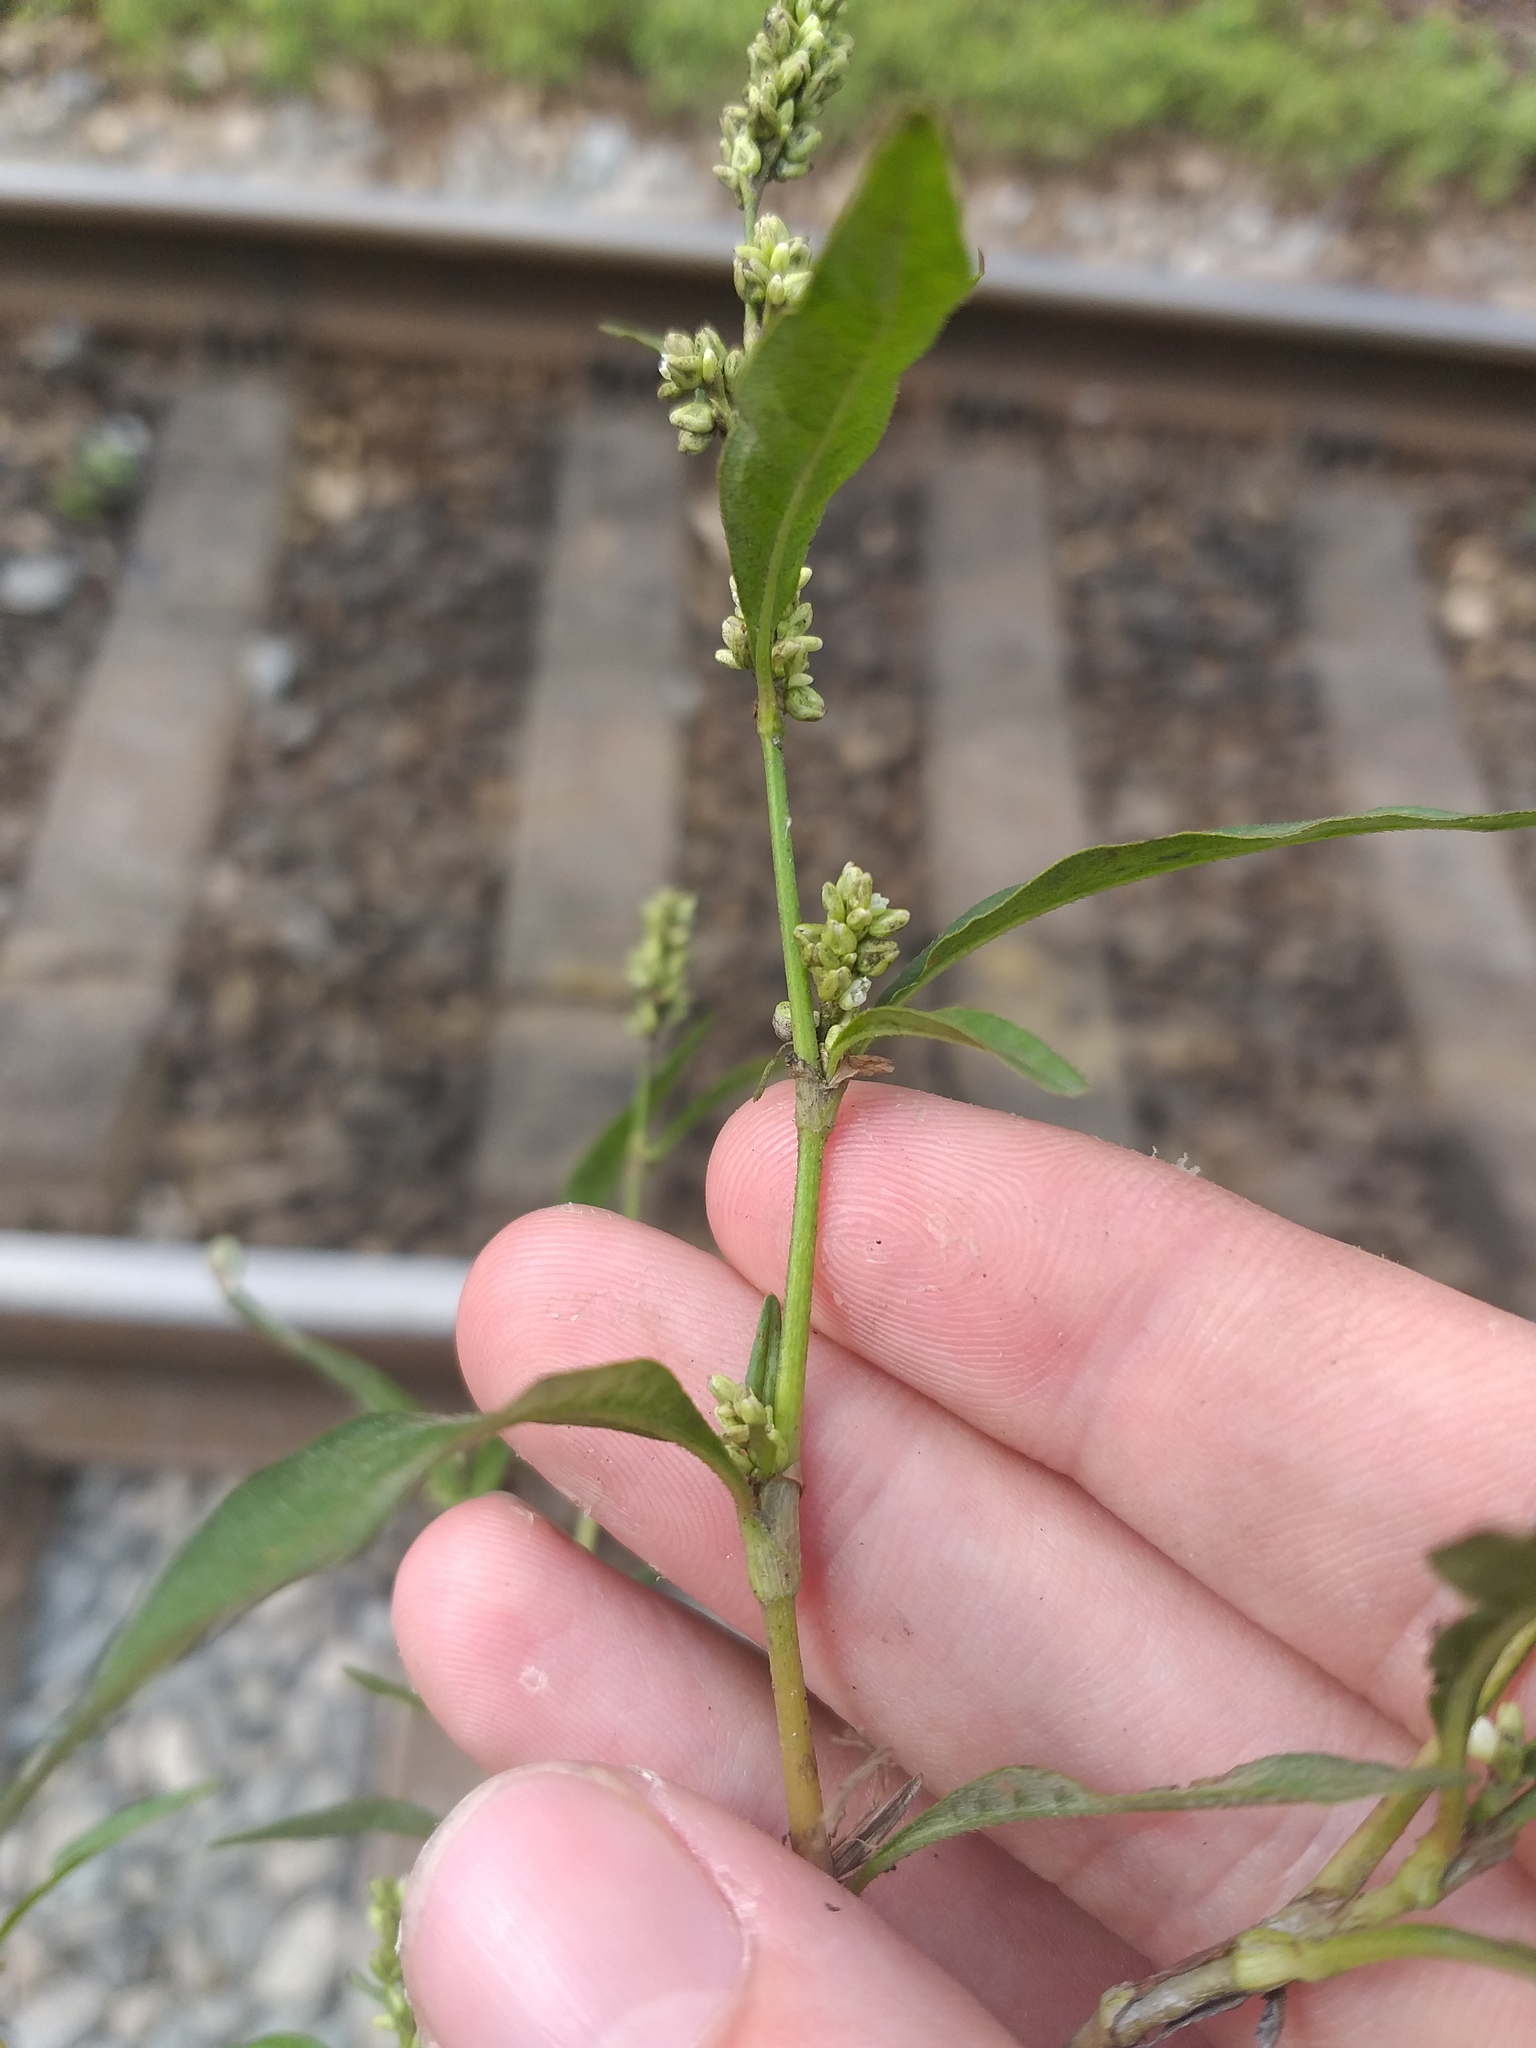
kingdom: Plantae
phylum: Tracheophyta
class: Magnoliopsida
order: Caryophyllales
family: Polygonaceae
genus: Persicaria
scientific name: Persicaria lapathifolia
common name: Curlytop knotweed
